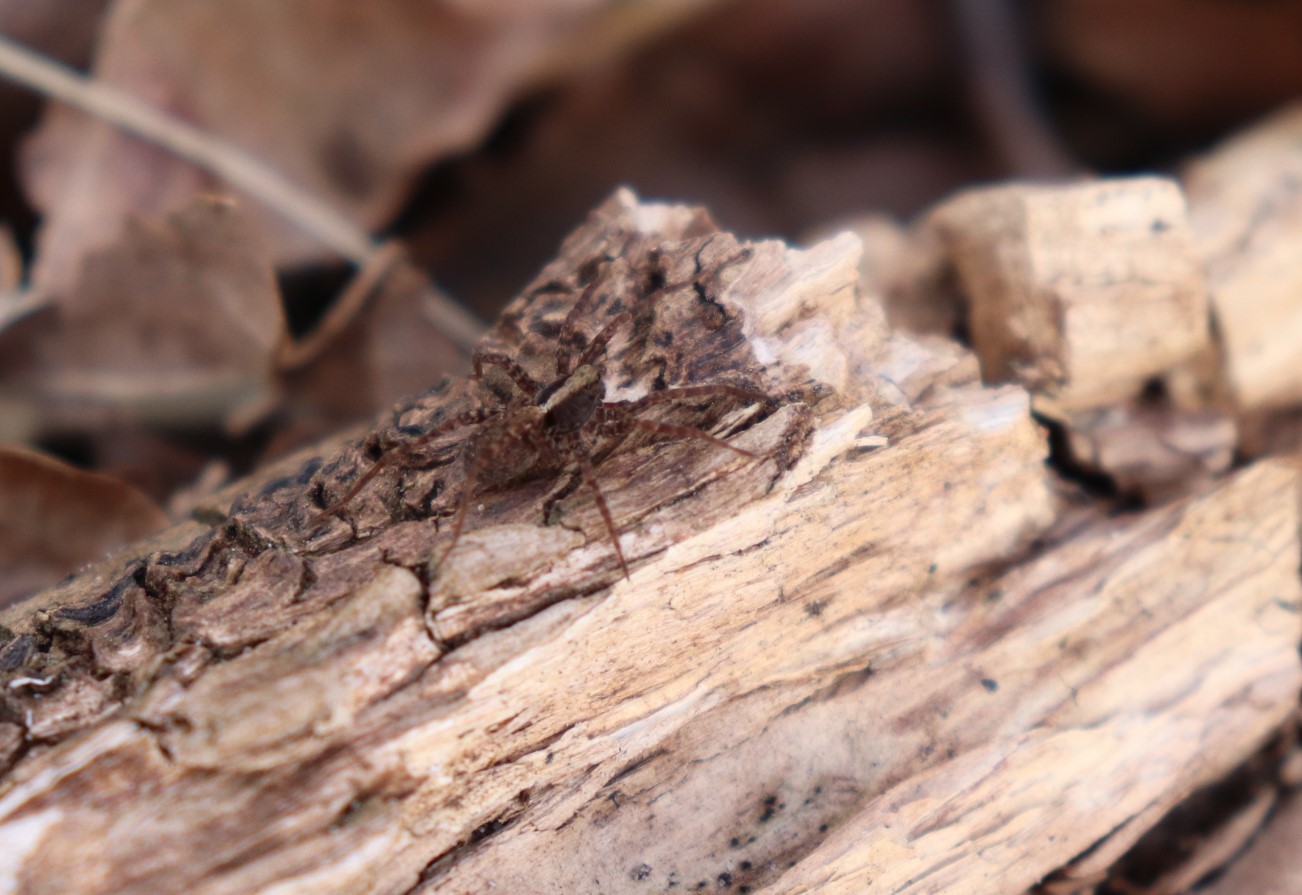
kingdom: Animalia
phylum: Arthropoda
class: Arachnida
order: Araneae
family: Lycosidae
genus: Pardosa
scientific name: Pardosa
